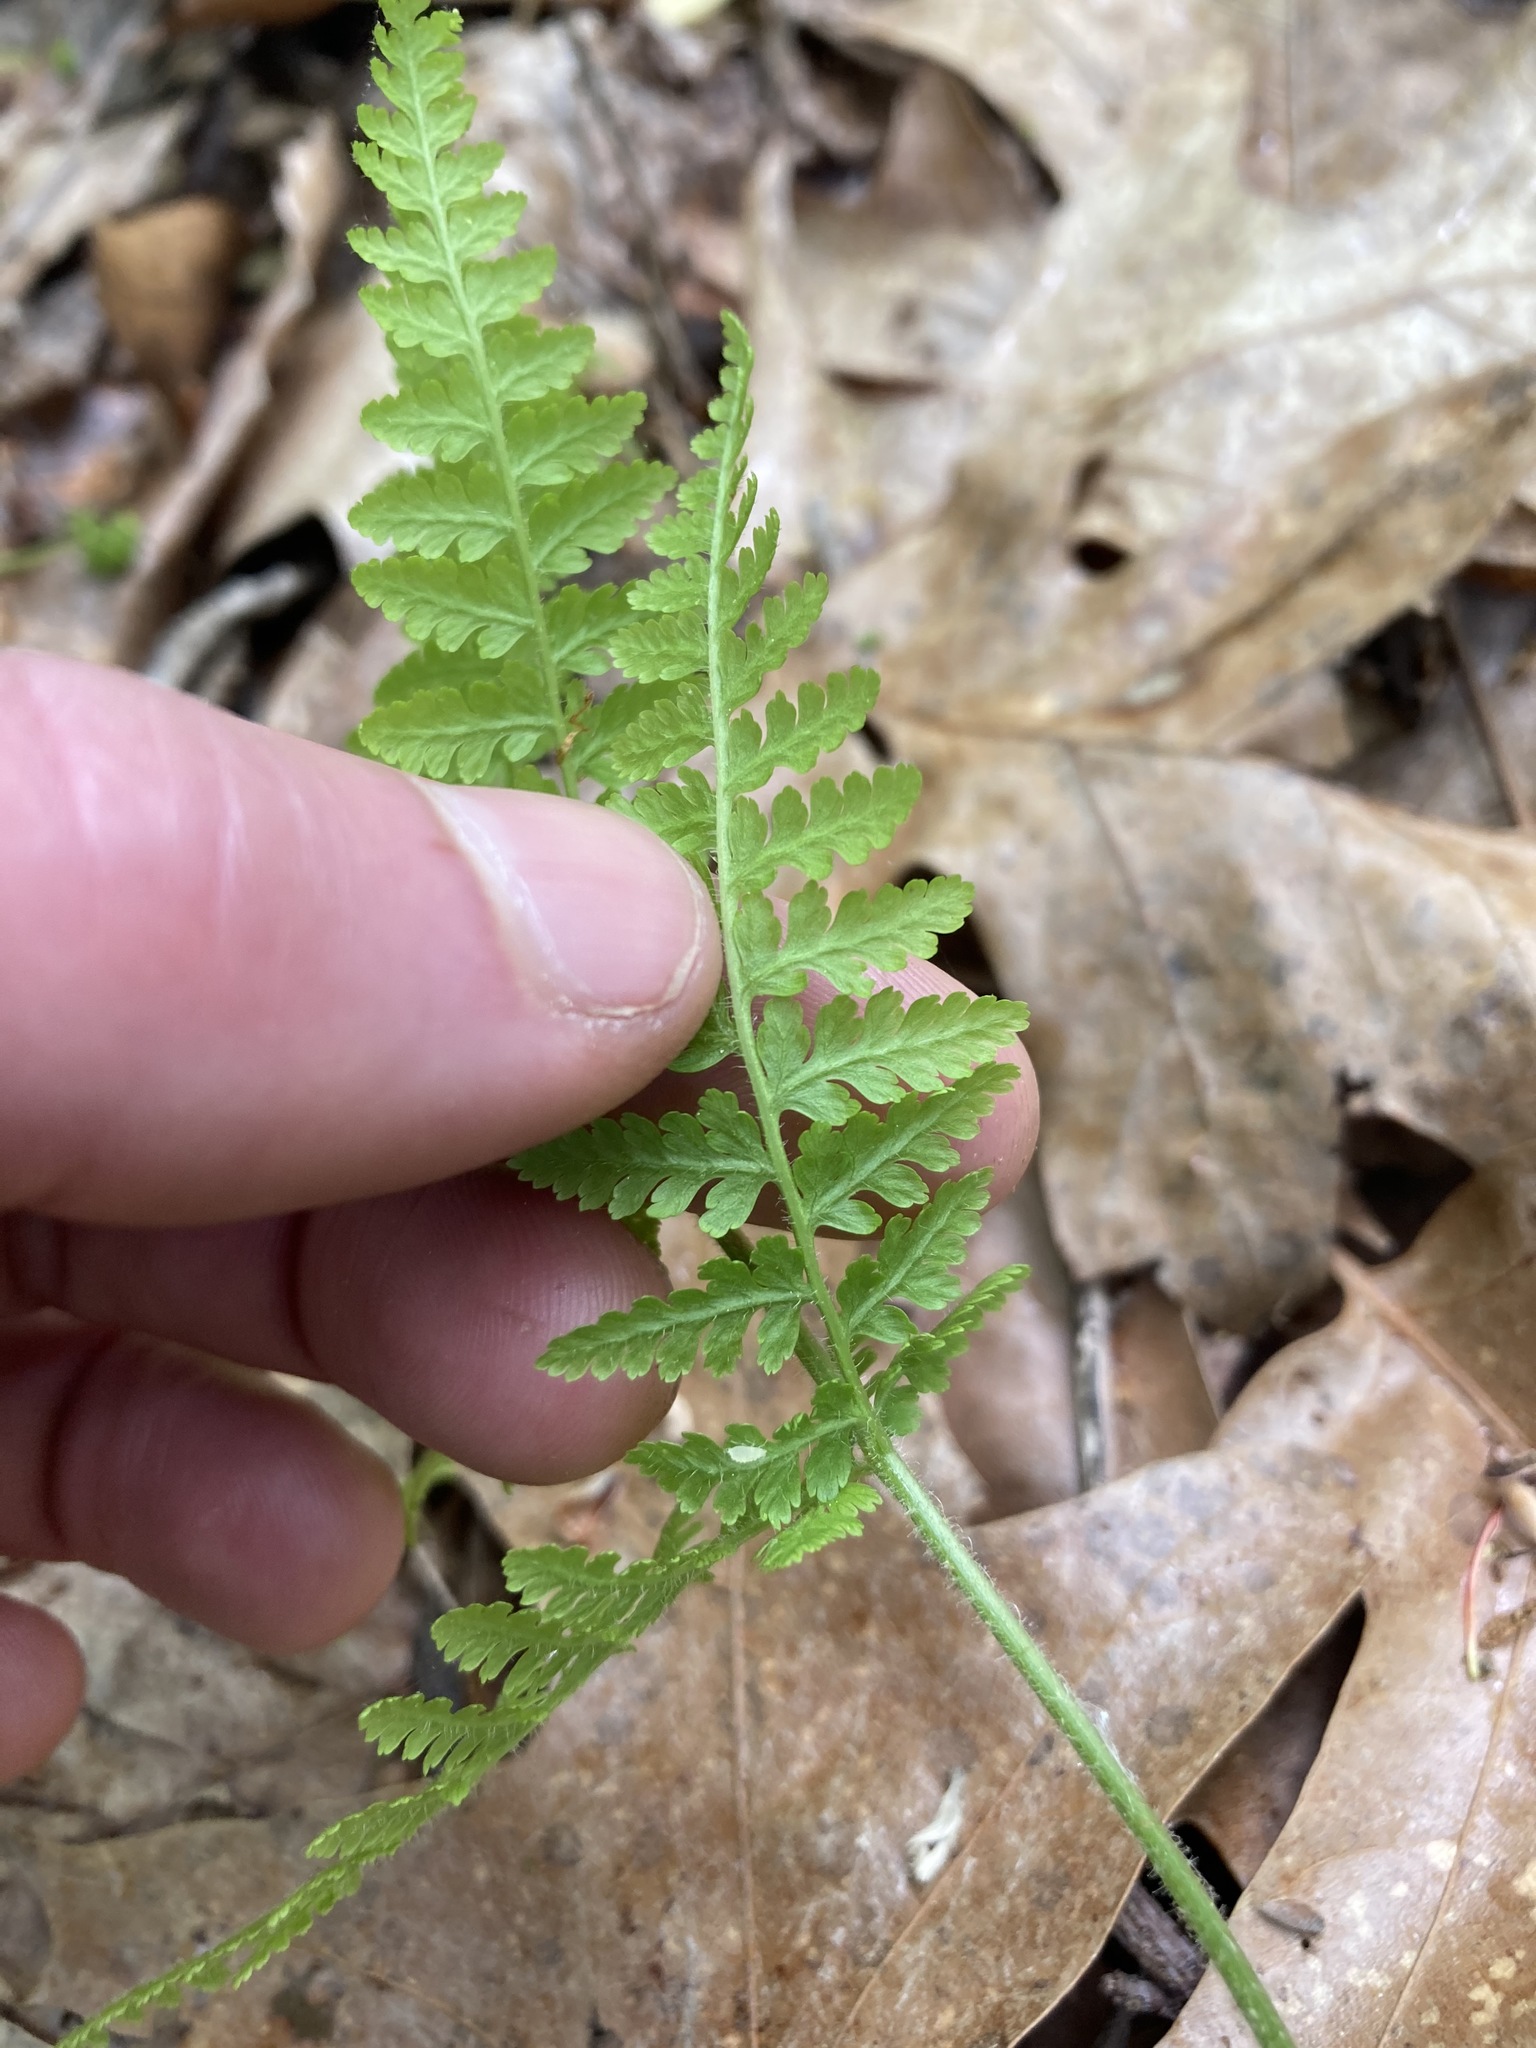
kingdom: Plantae
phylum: Tracheophyta
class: Polypodiopsida
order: Polypodiales
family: Dennstaedtiaceae
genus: Sitobolium
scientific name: Sitobolium punctilobum
